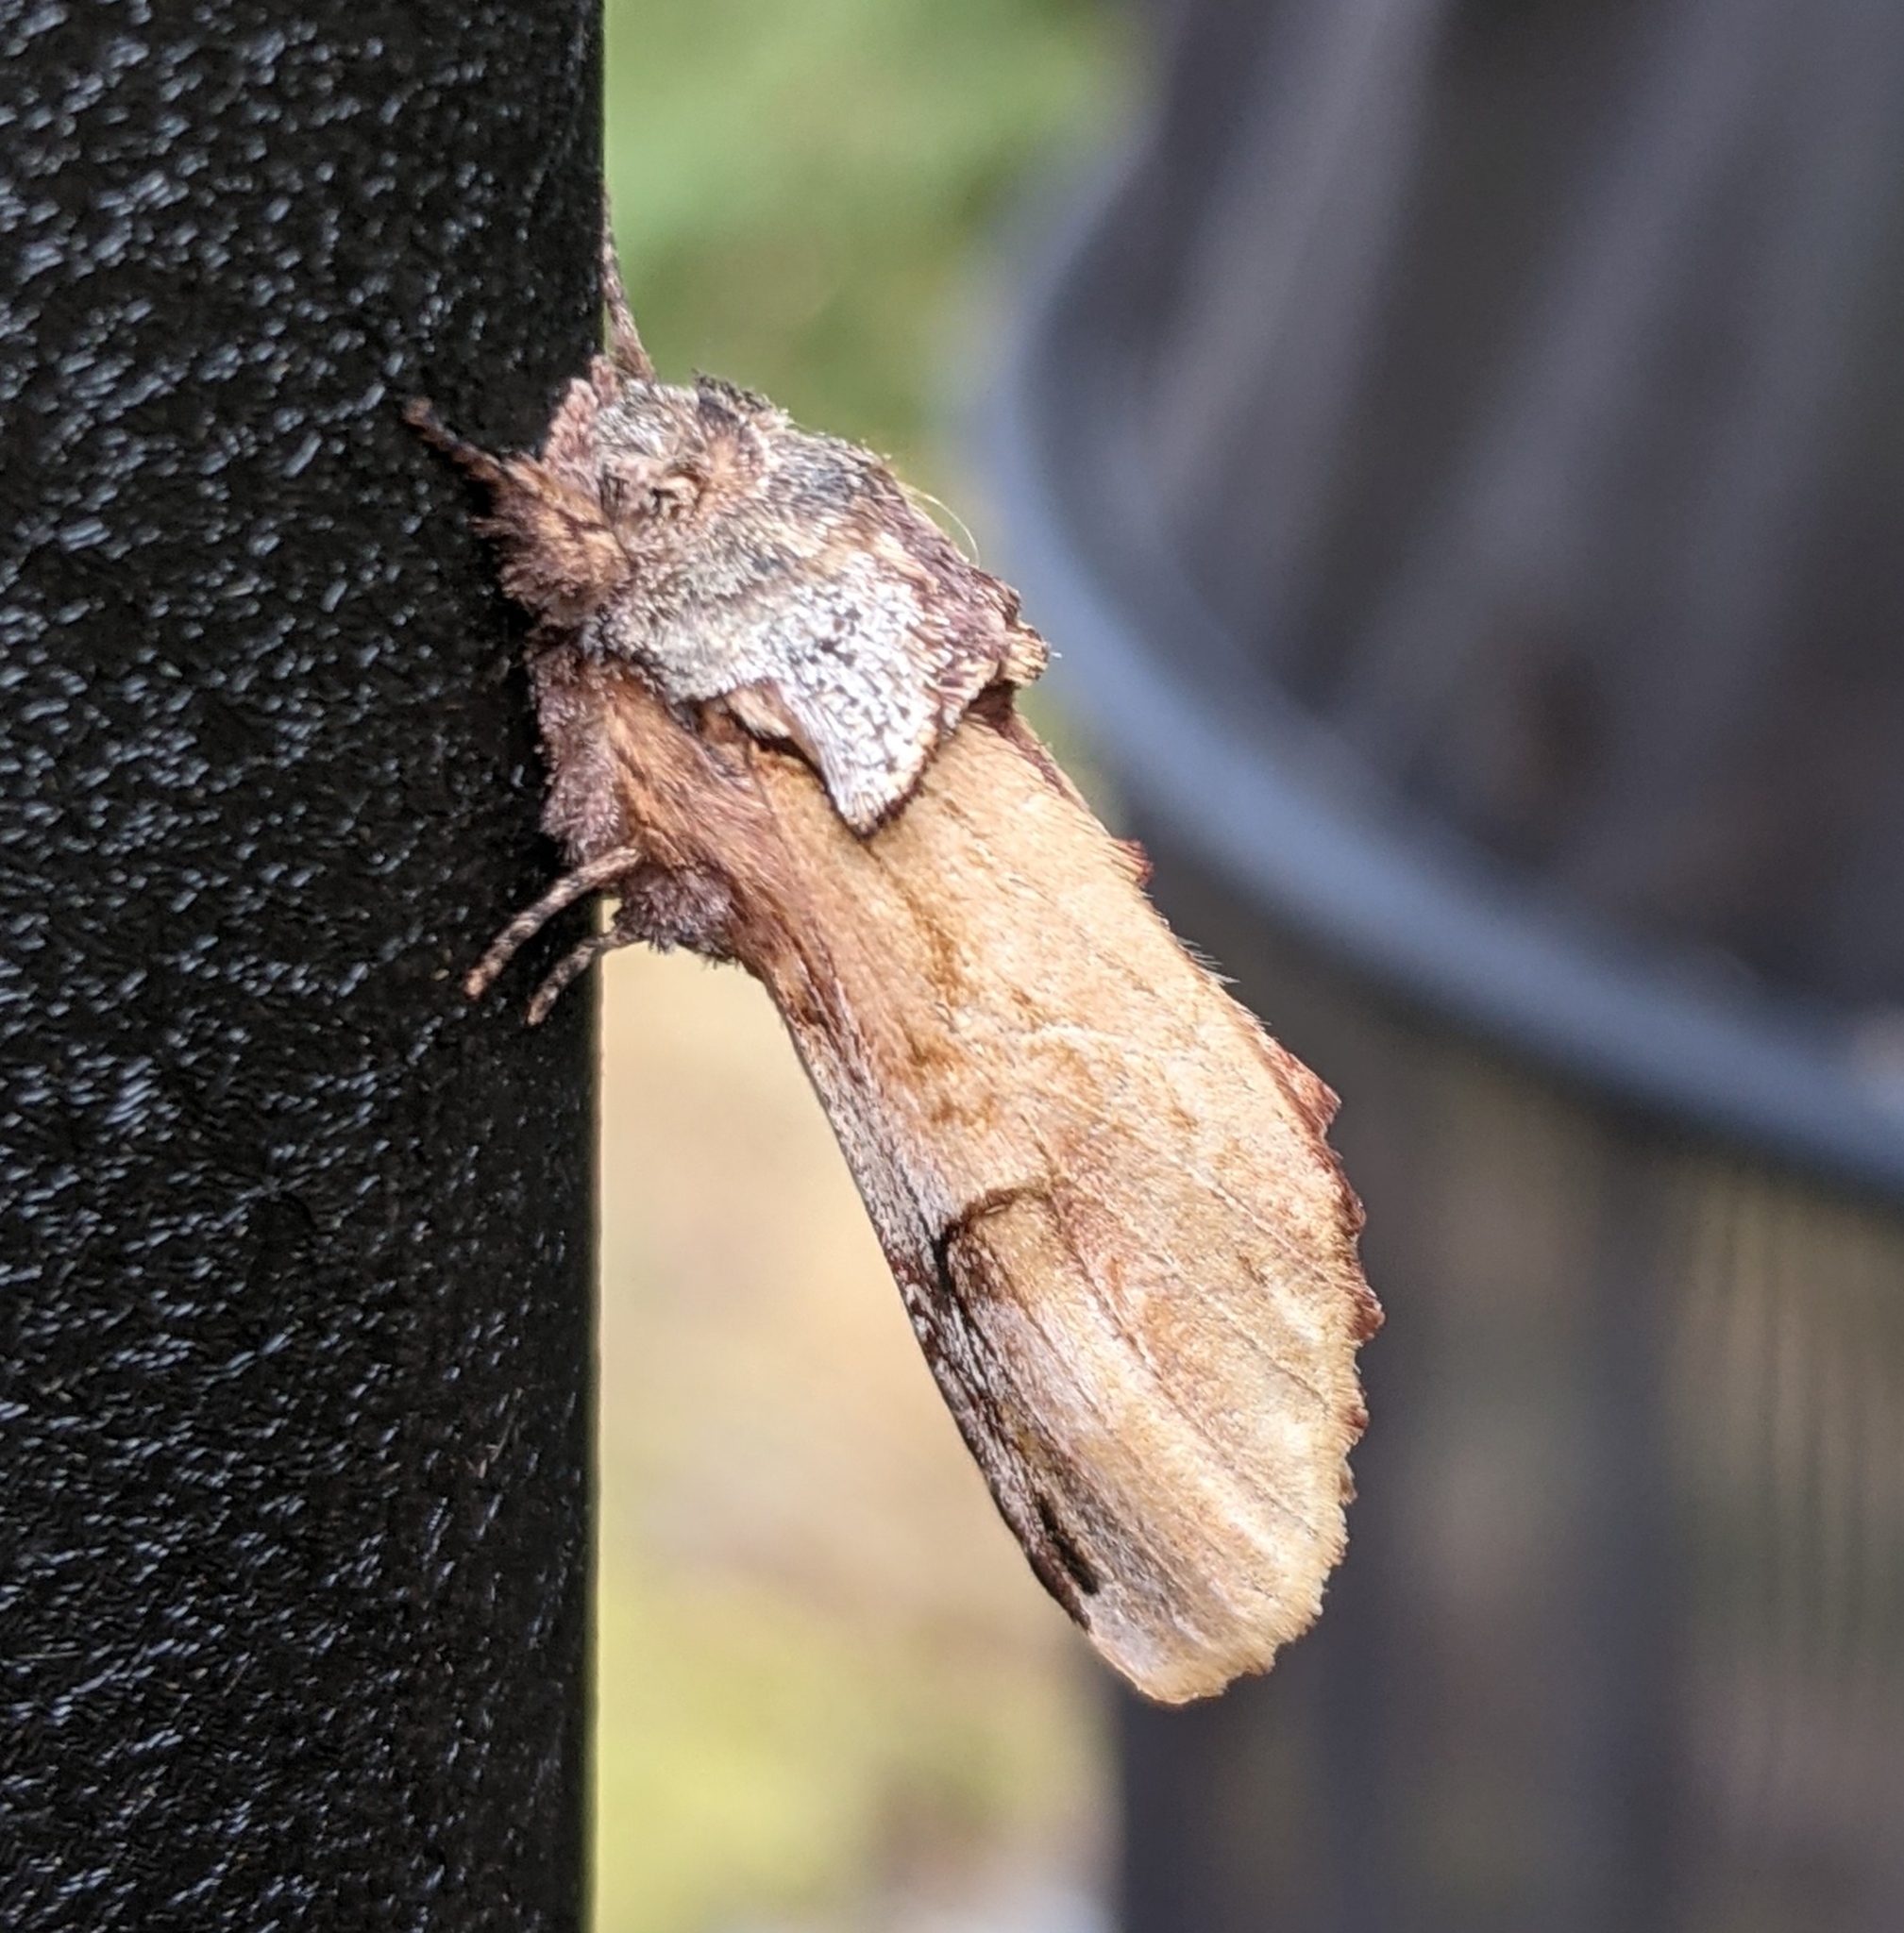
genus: Ianassa
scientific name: Ianassa
